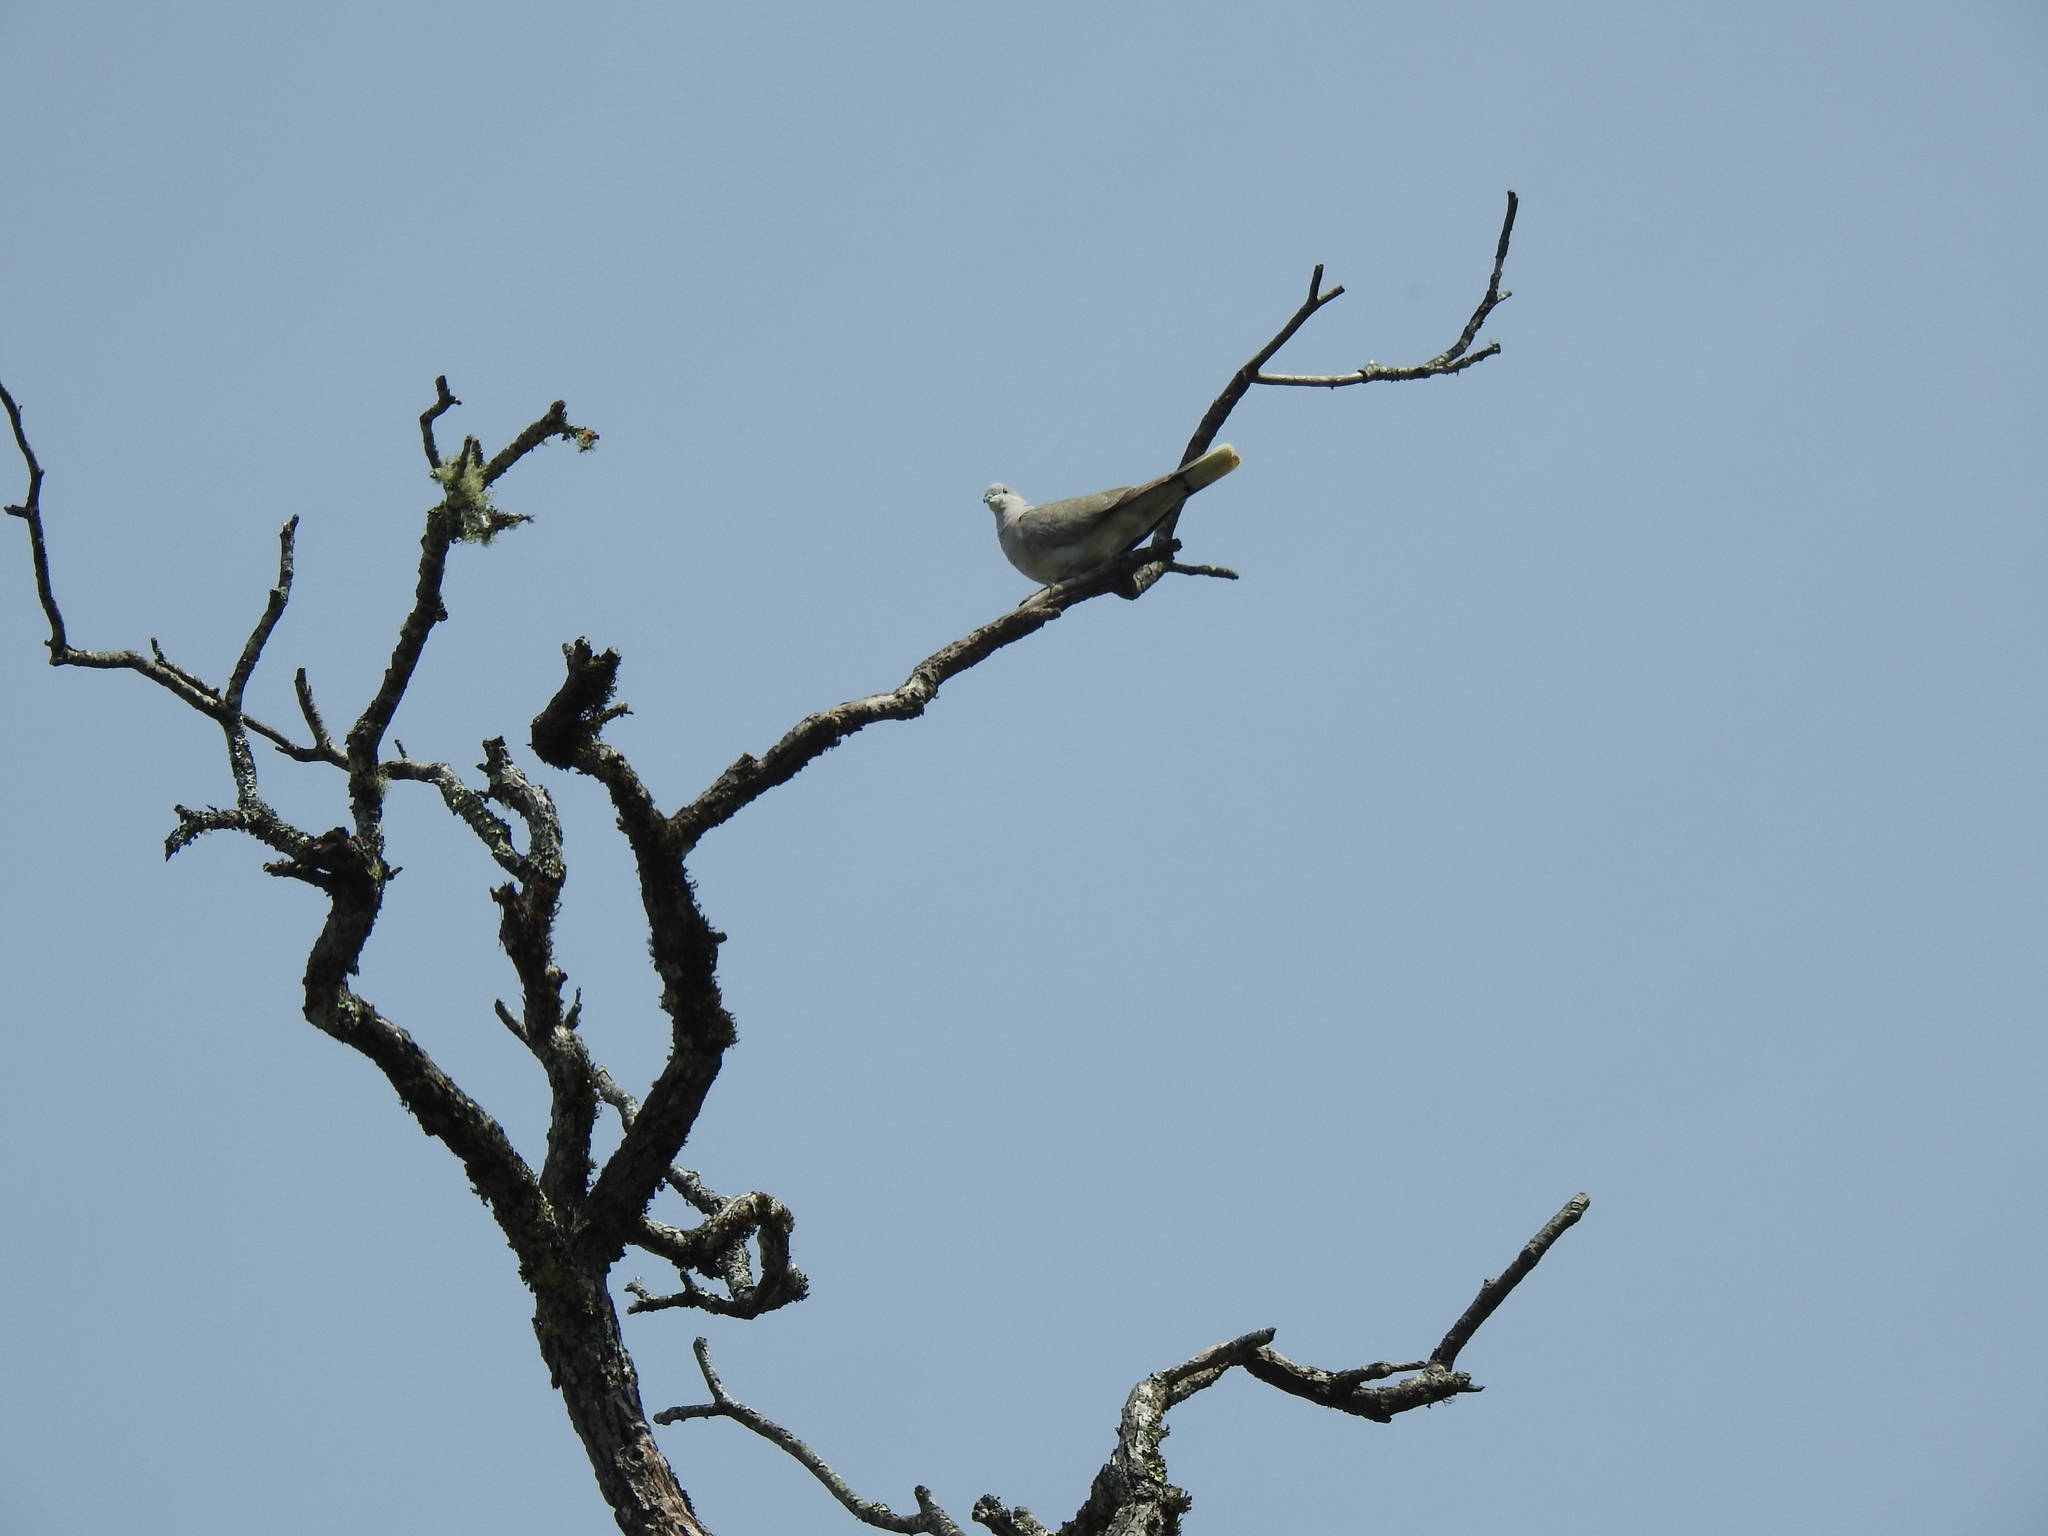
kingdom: Animalia
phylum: Chordata
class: Aves
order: Columbiformes
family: Columbidae
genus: Streptopelia
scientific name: Streptopelia decaocto
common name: Eurasian collared dove
